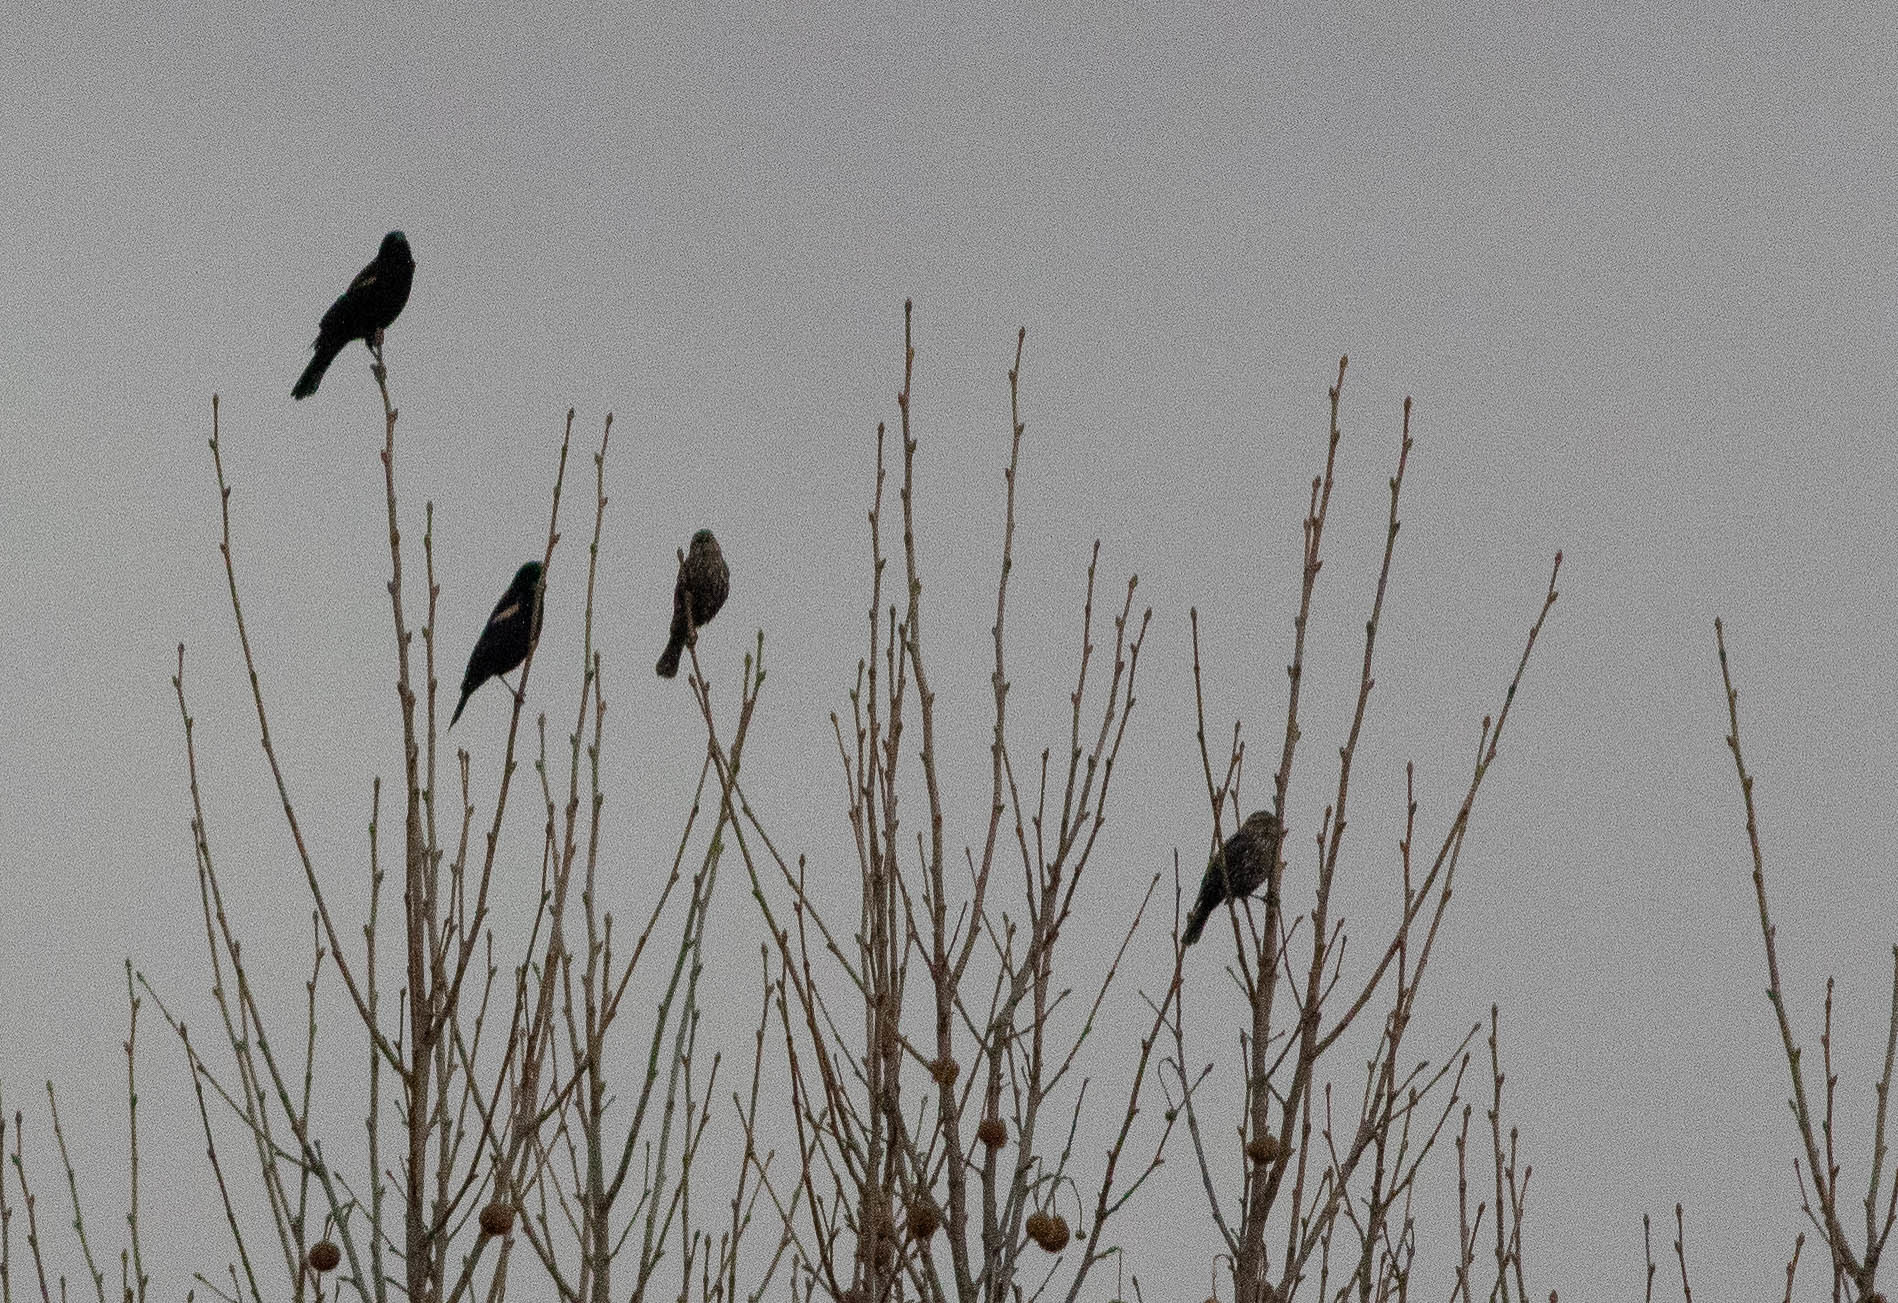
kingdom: Animalia
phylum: Chordata
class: Aves
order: Passeriformes
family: Icteridae
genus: Agelaius
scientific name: Agelaius phoeniceus
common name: Red-winged blackbird
